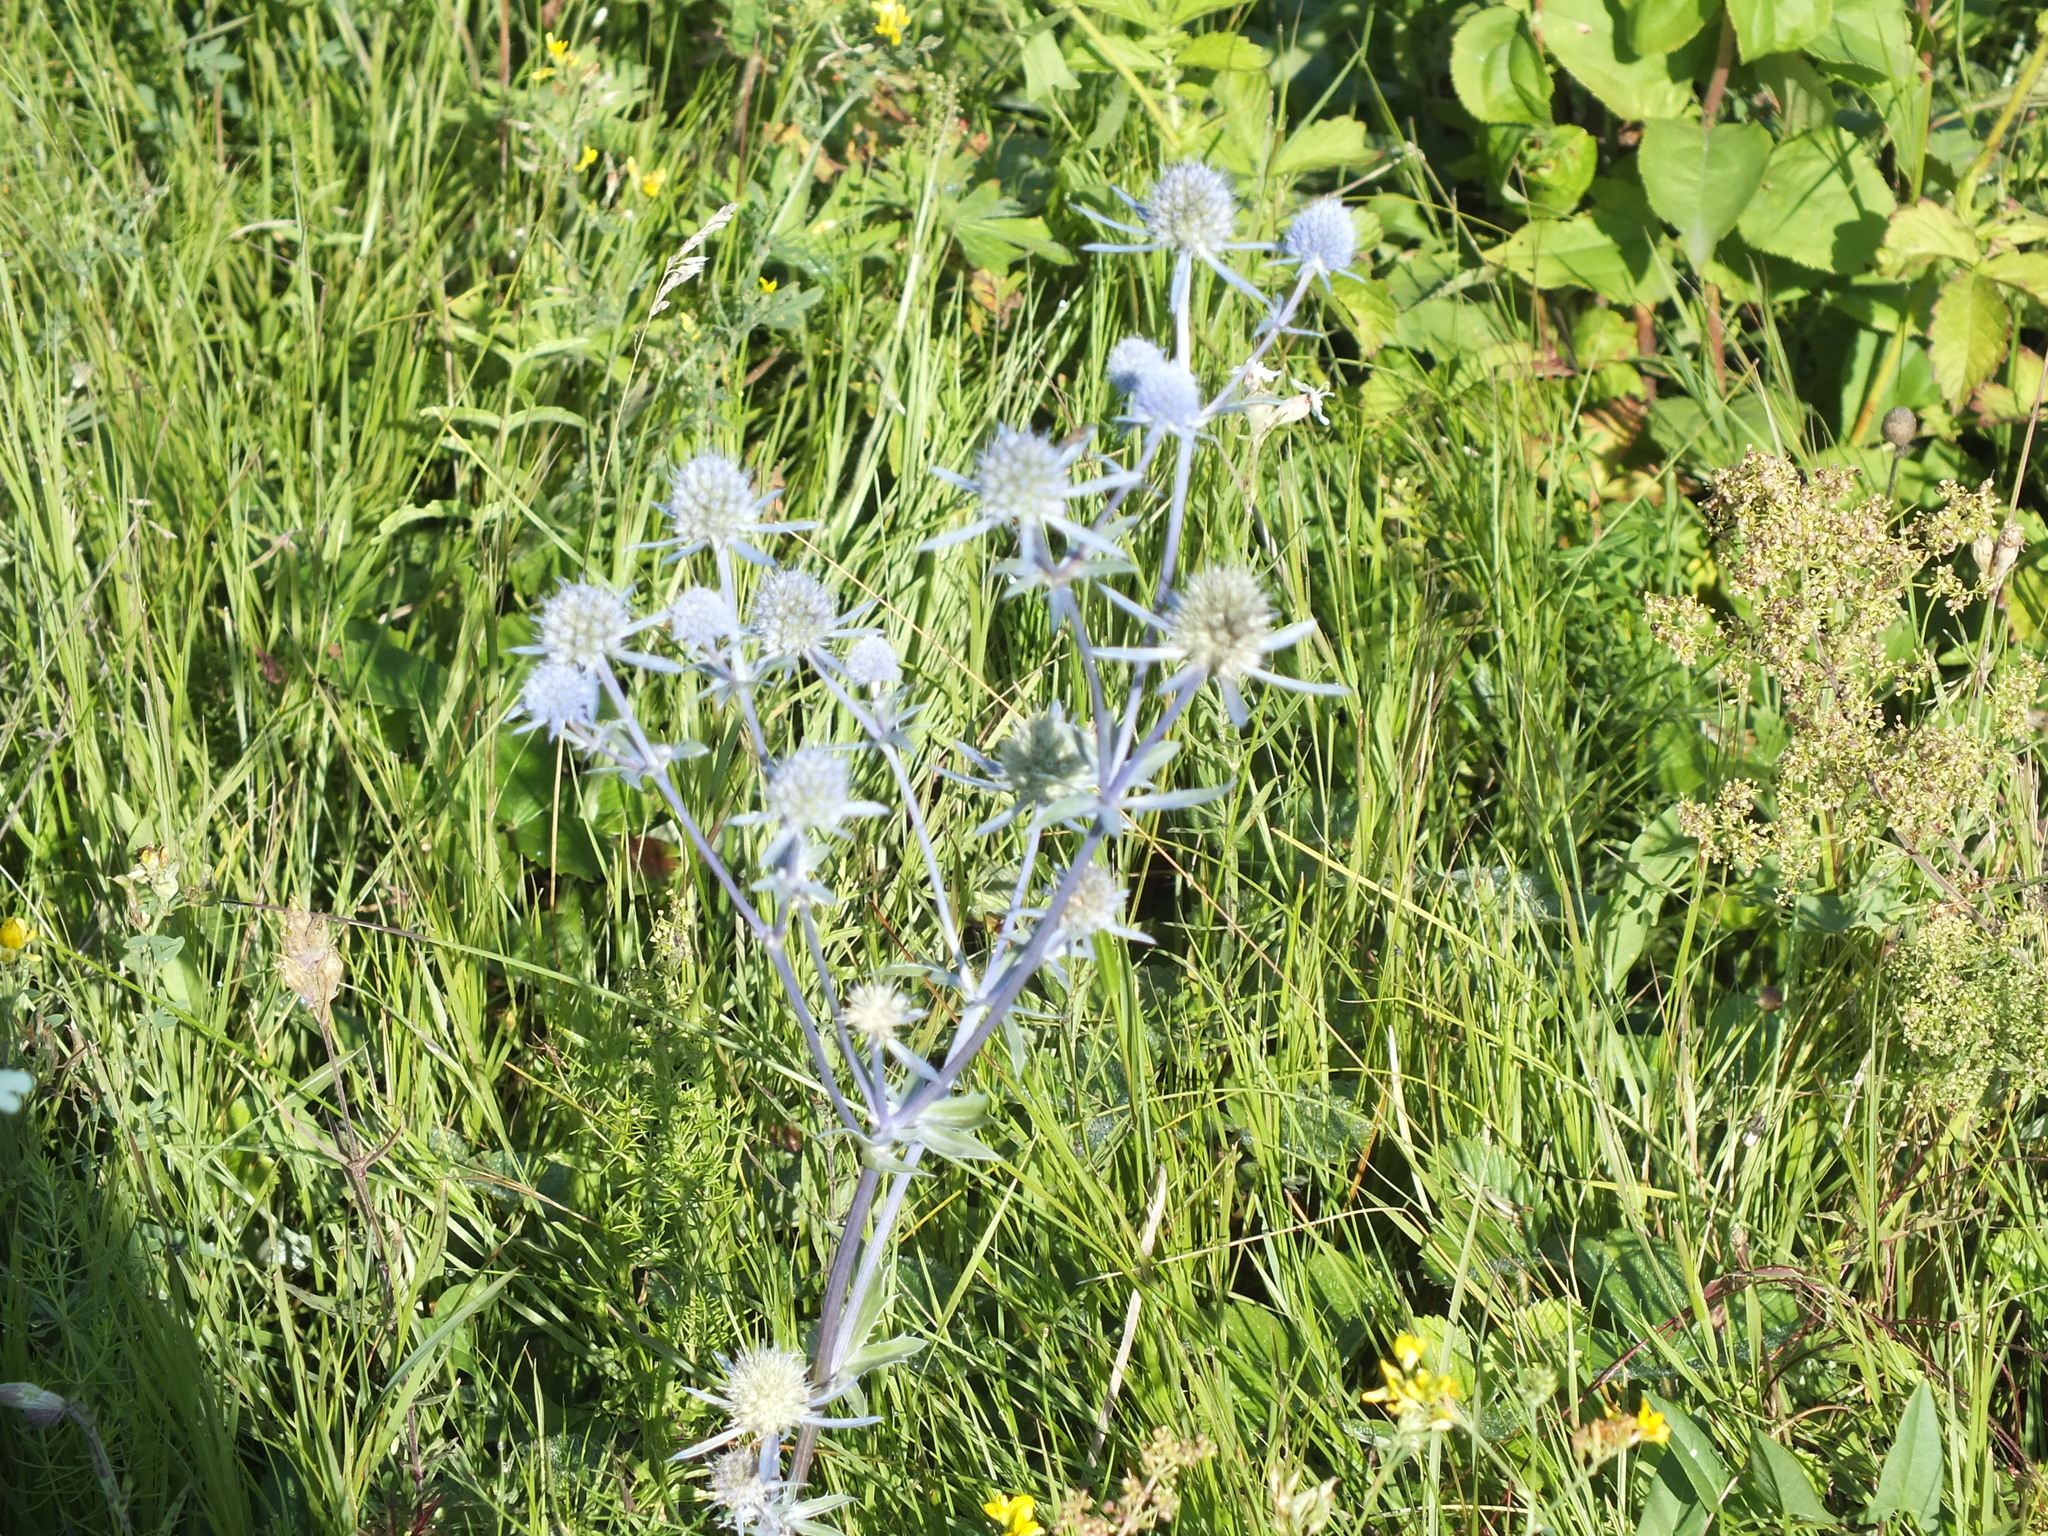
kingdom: Plantae
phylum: Tracheophyta
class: Magnoliopsida
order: Apiales
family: Apiaceae
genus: Eryngium
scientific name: Eryngium planum
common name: Blue eryngo
